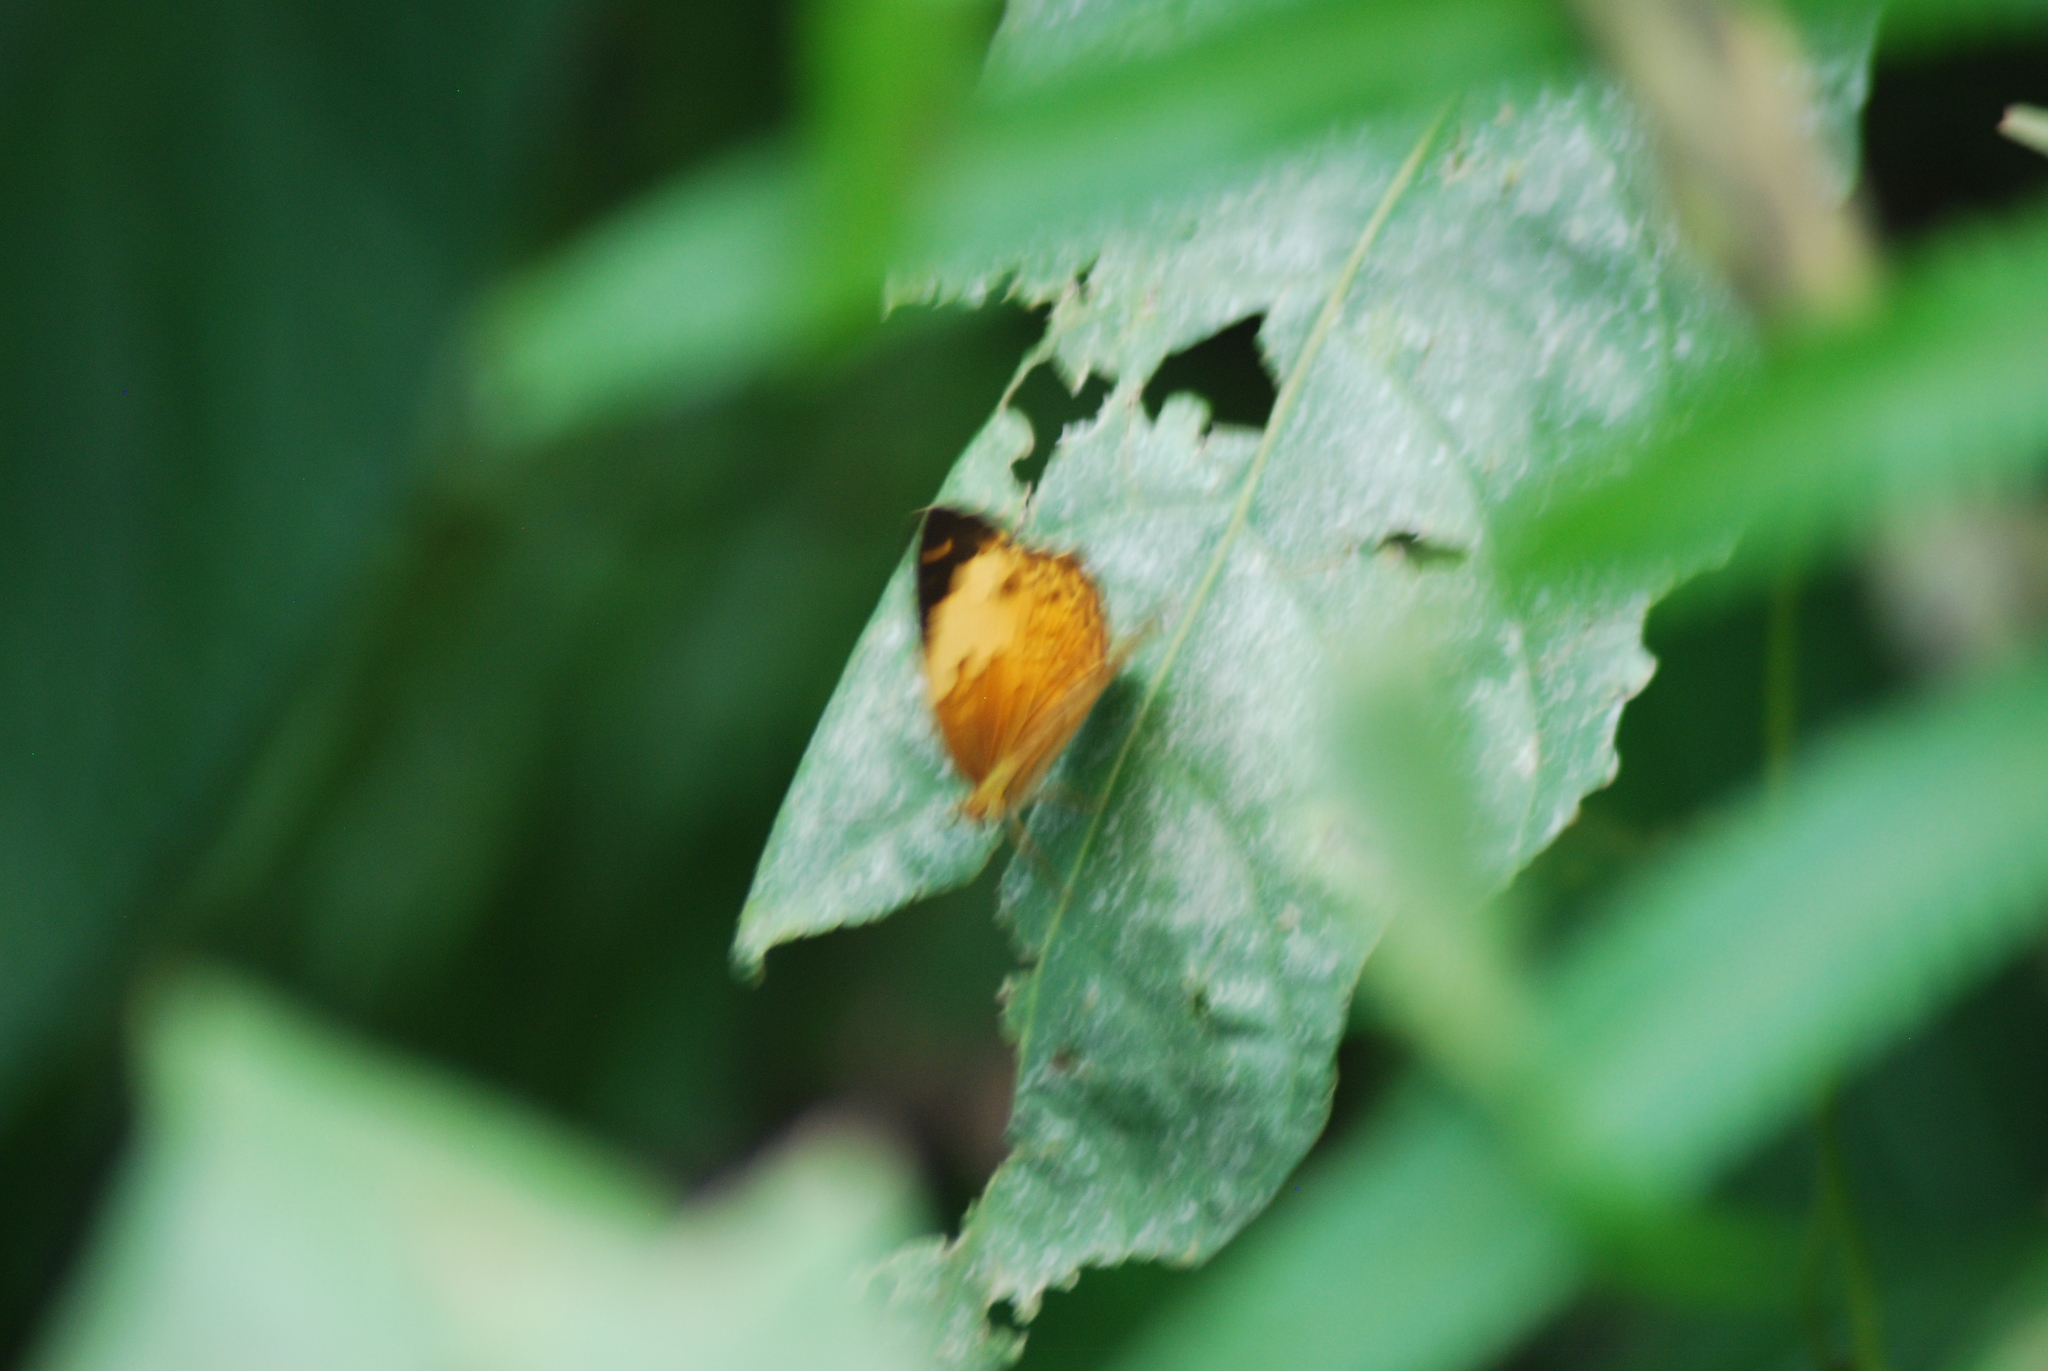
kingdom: Animalia
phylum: Arthropoda
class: Insecta
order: Lepidoptera
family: Nymphalidae
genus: Cupha
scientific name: Cupha erymanthis
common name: Rustic
